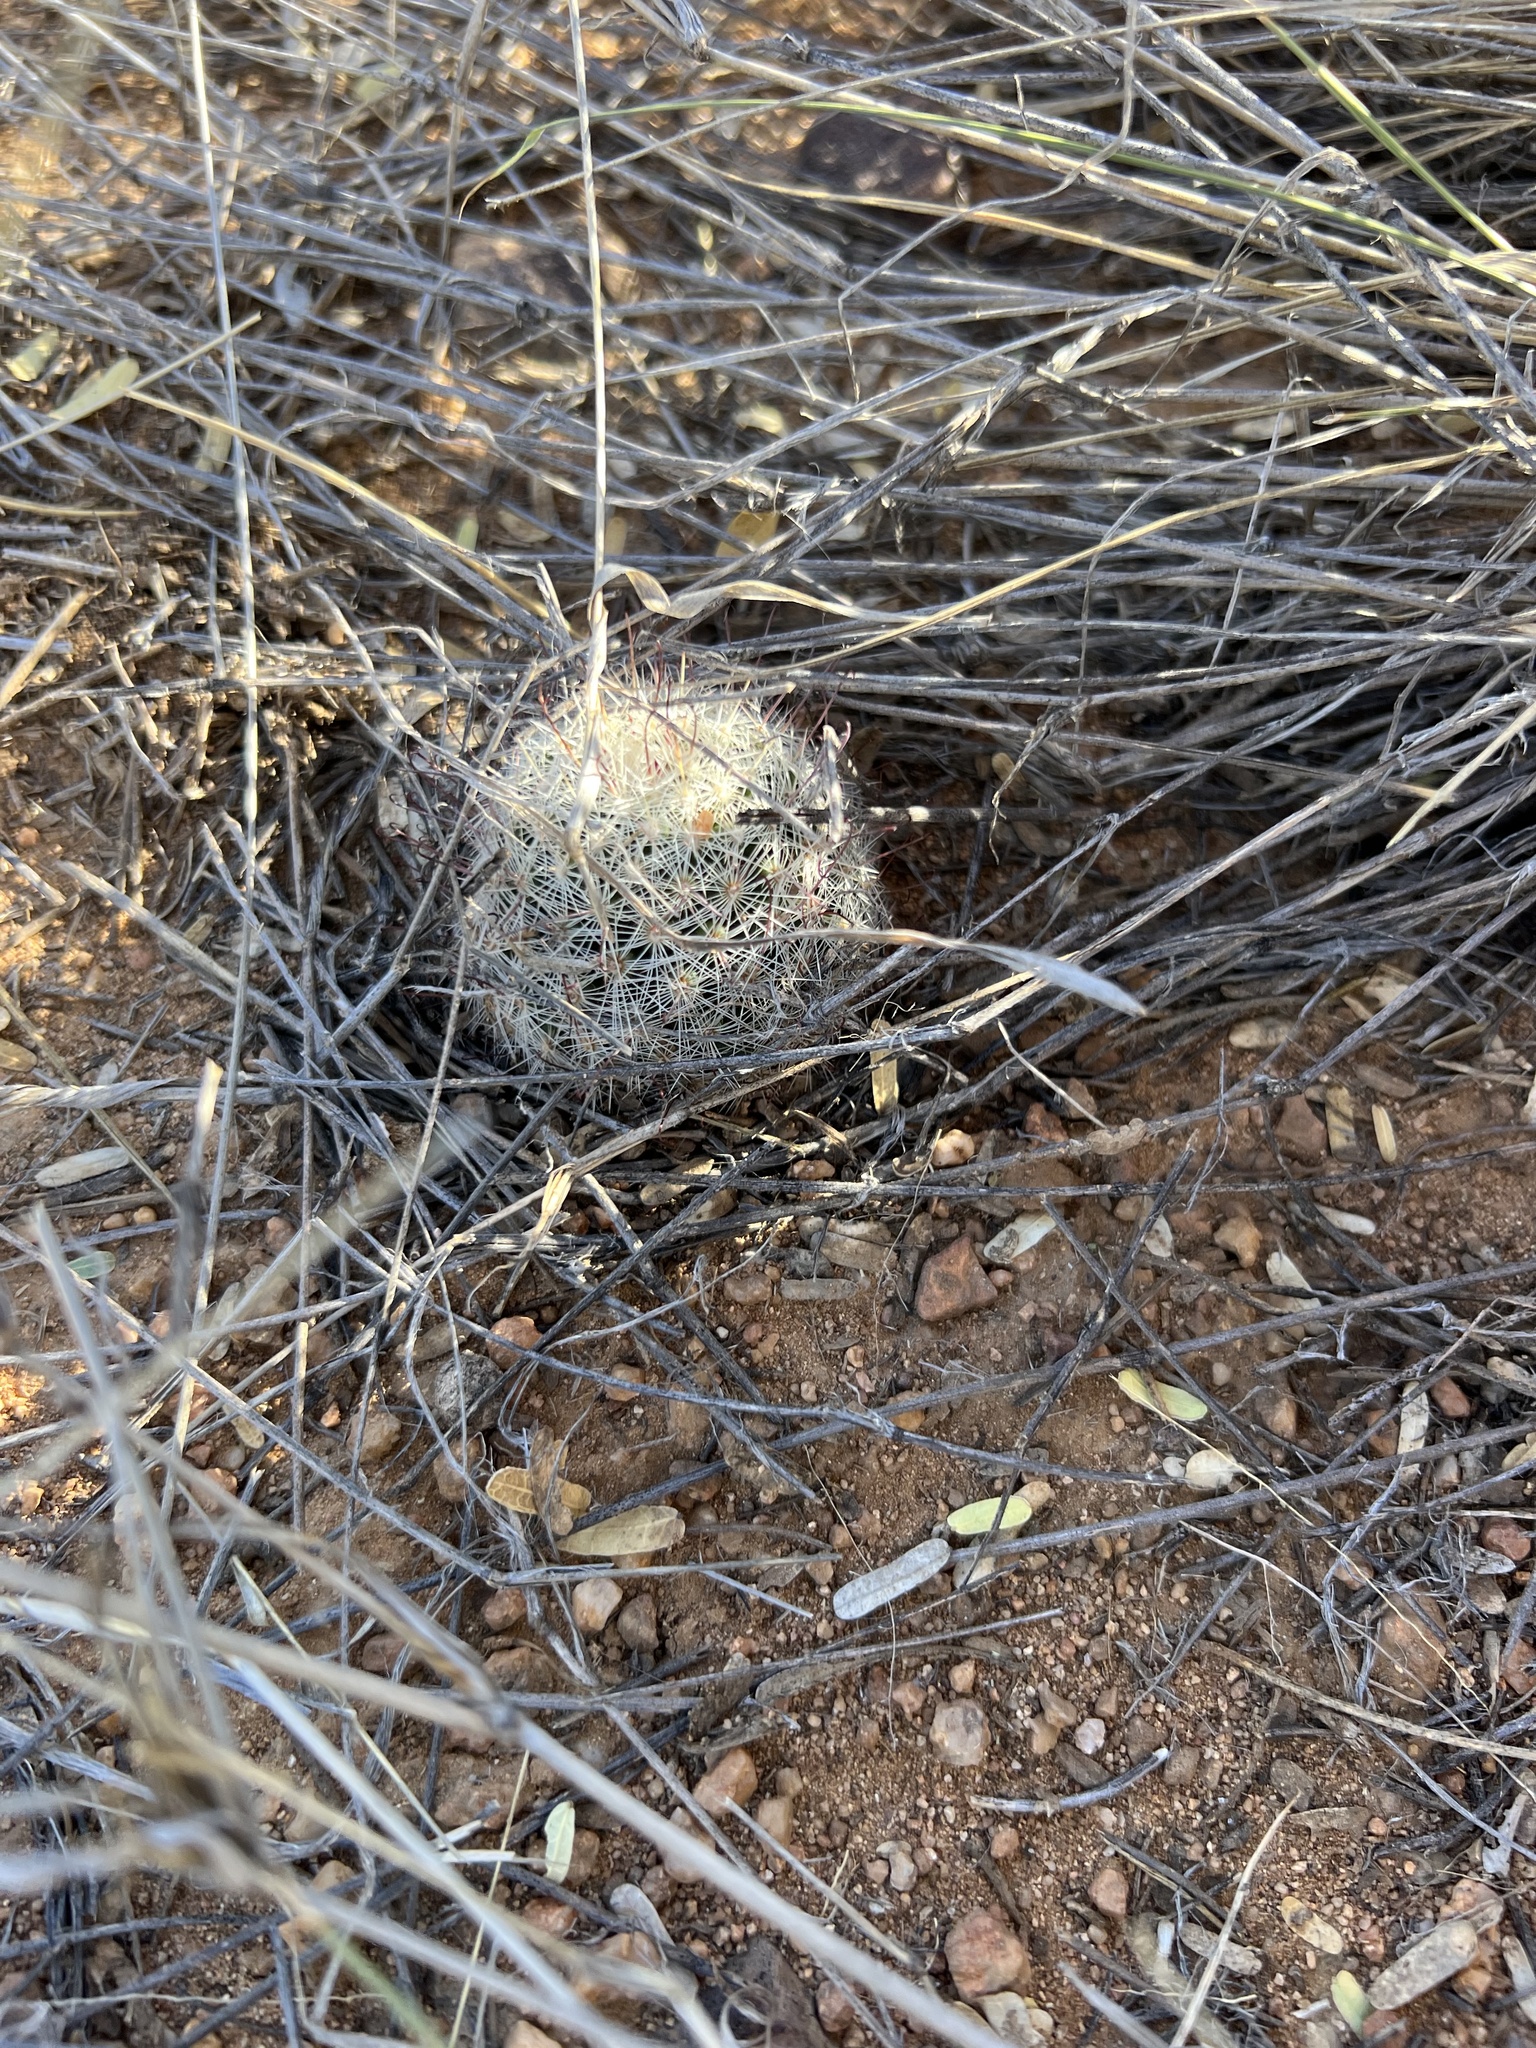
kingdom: Plantae
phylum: Tracheophyta
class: Magnoliopsida
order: Caryophyllales
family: Cactaceae
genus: Cochemiea
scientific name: Cochemiea grahamii
